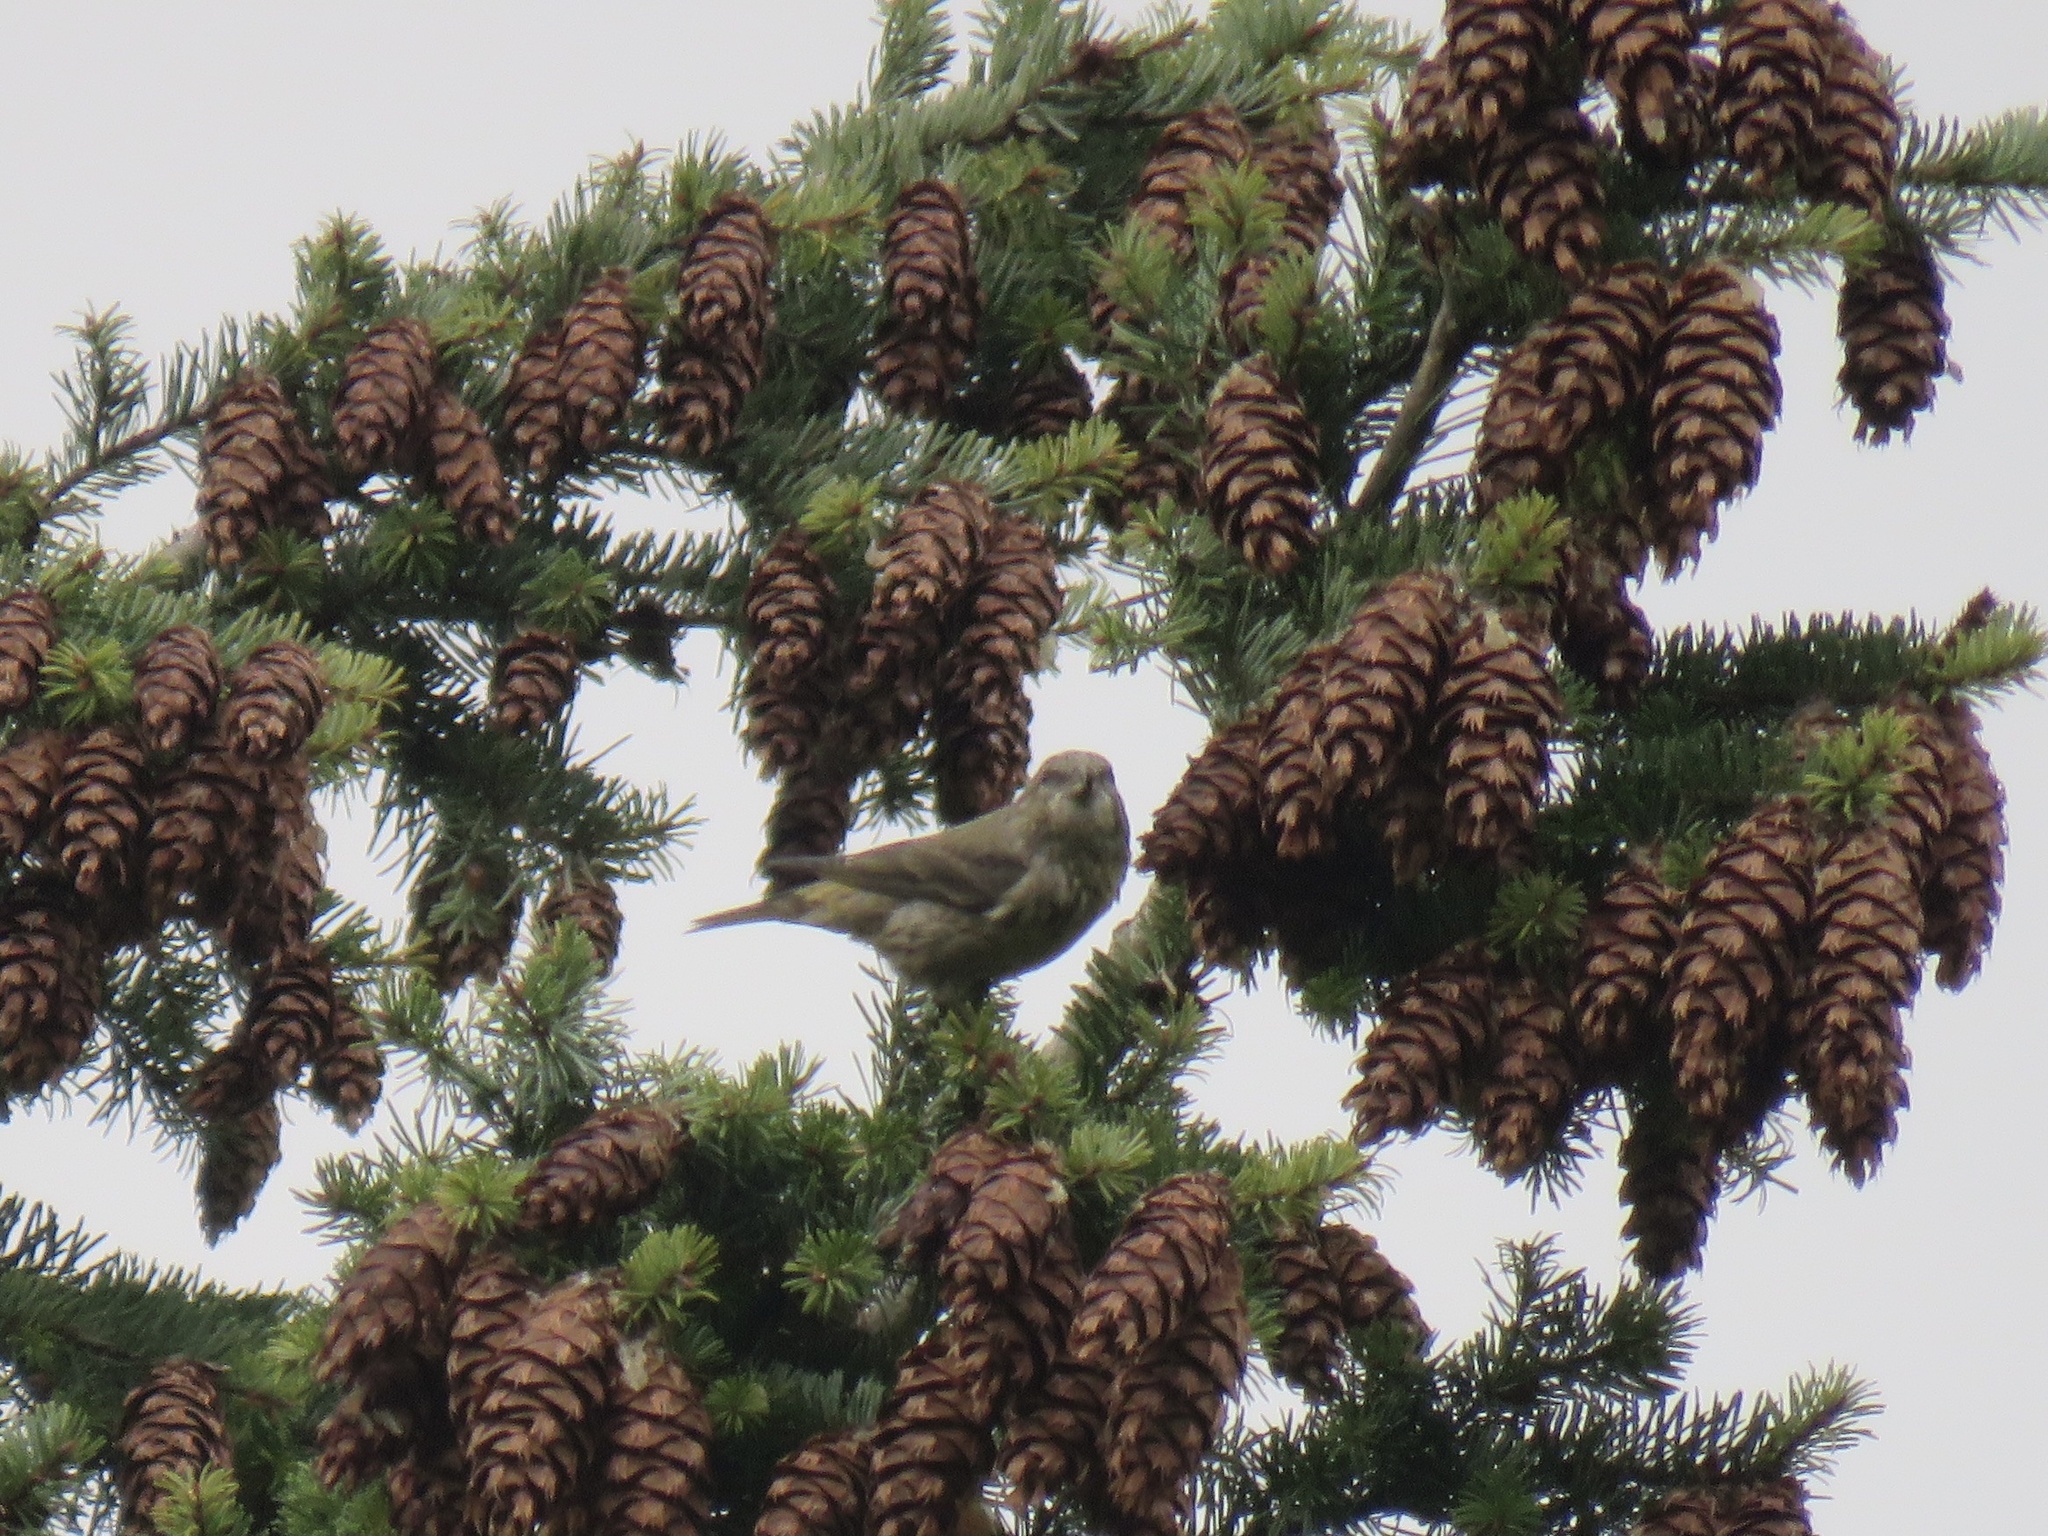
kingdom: Animalia
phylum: Chordata
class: Aves
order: Passeriformes
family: Fringillidae
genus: Loxia
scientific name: Loxia curvirostra
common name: Red crossbill
